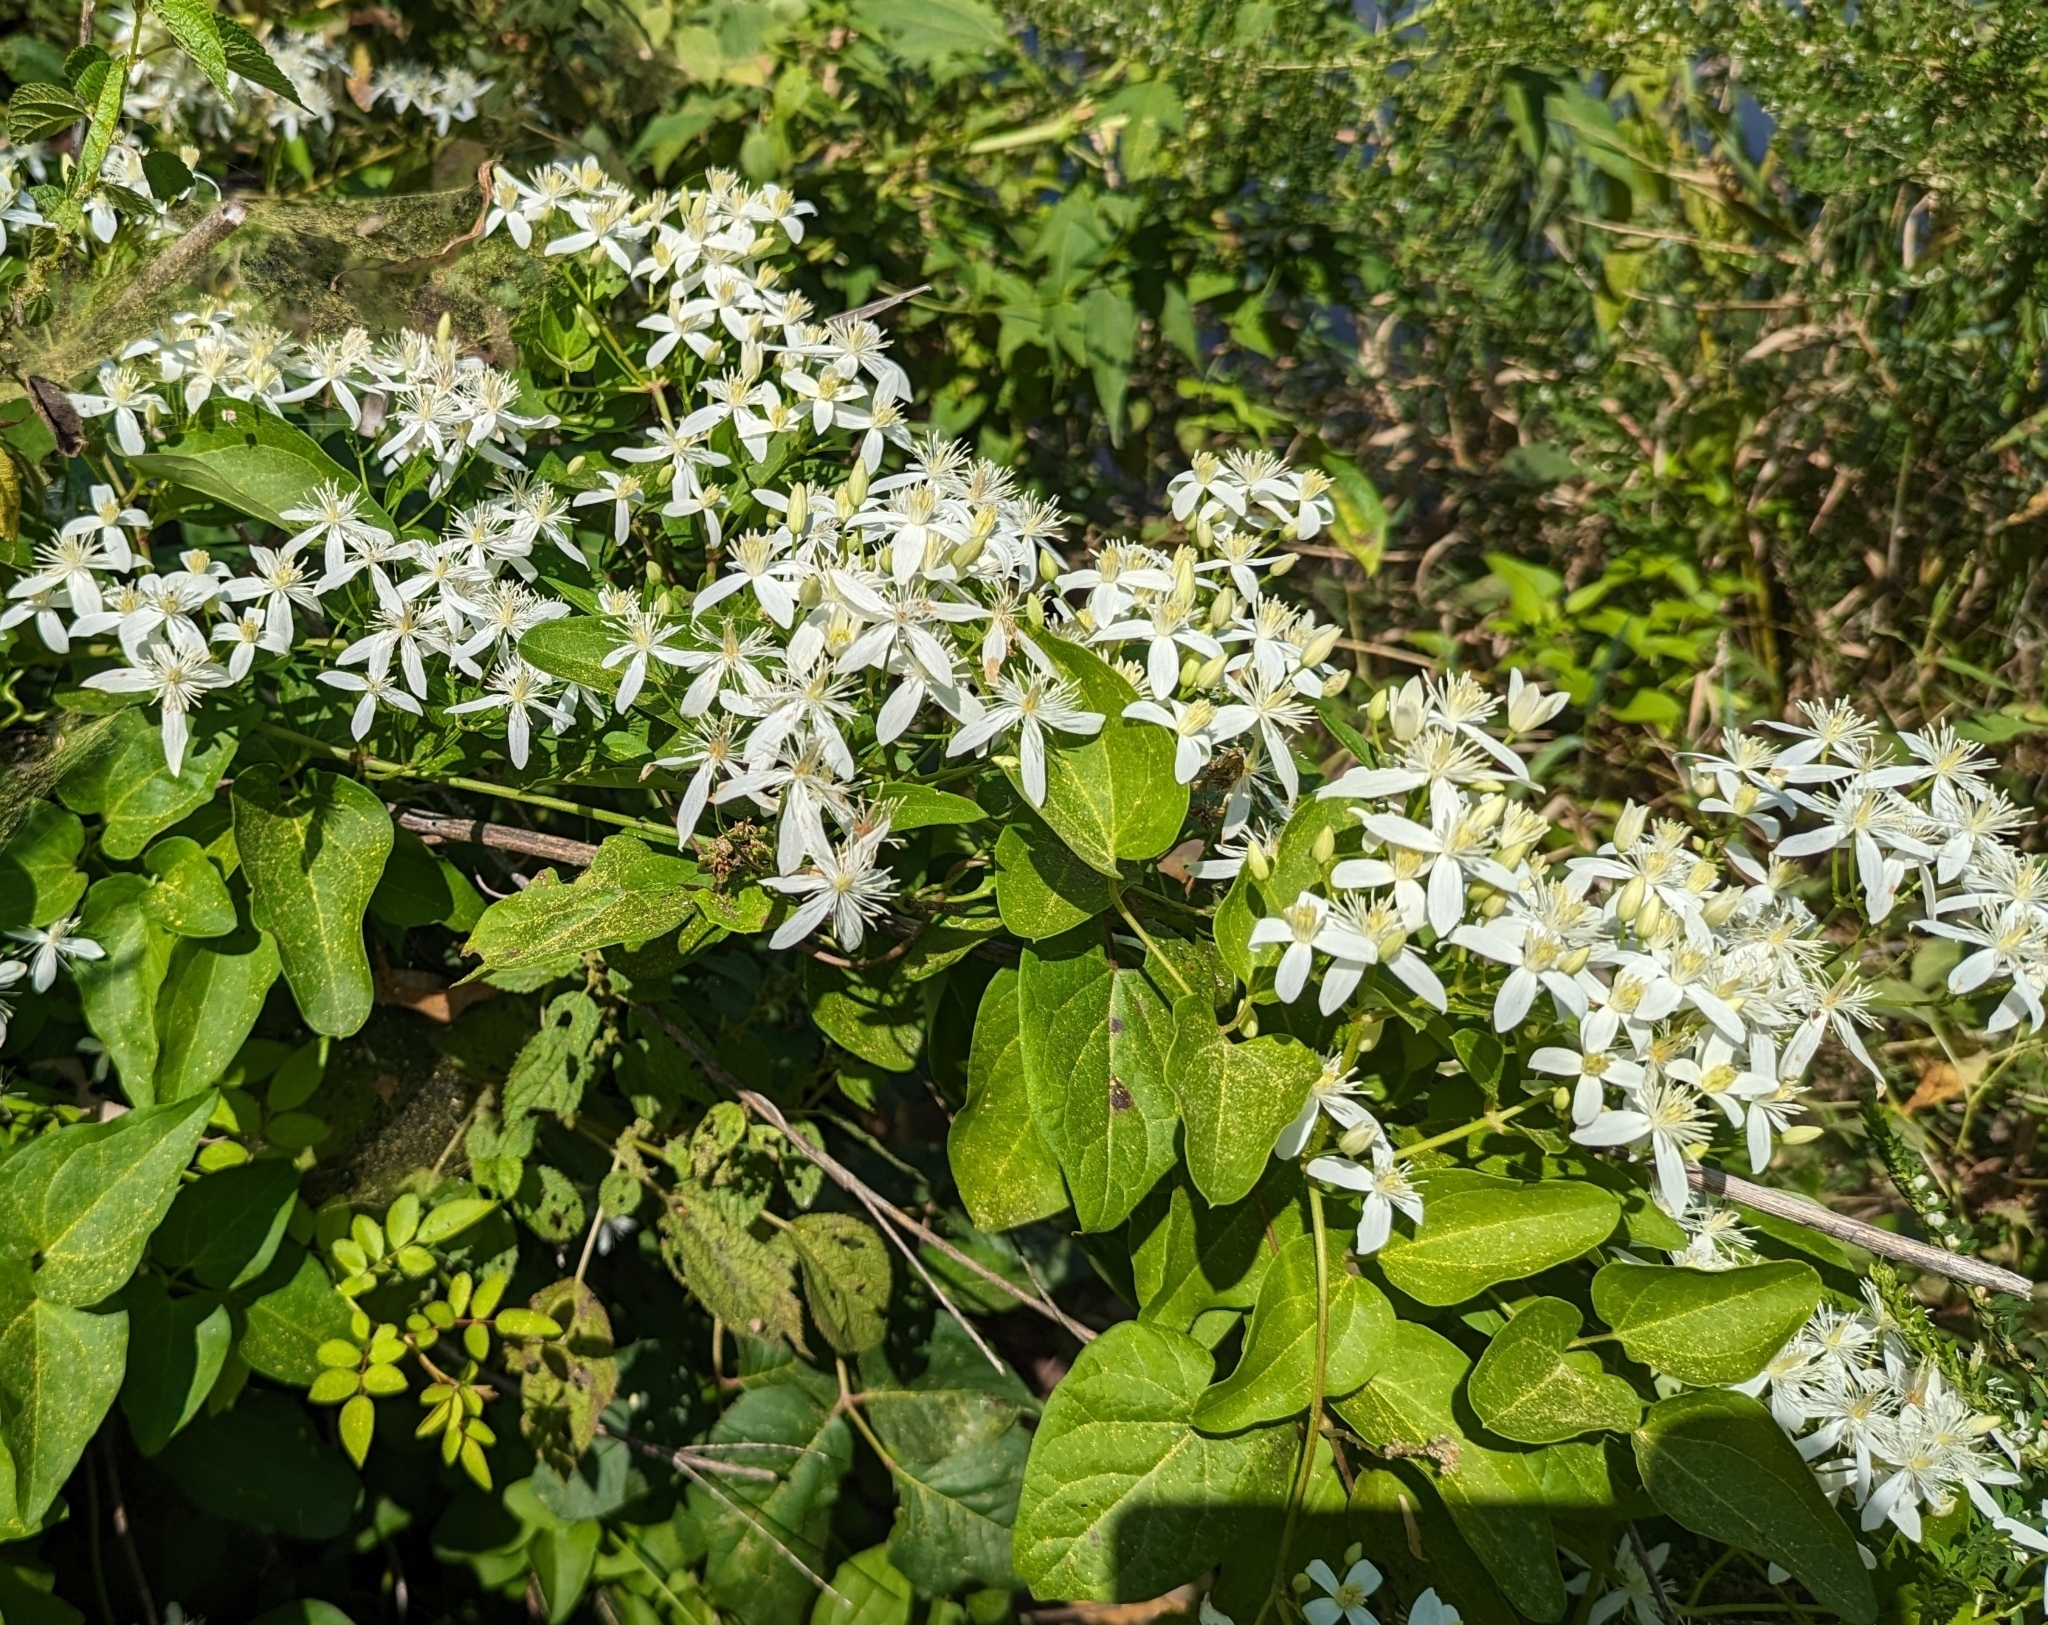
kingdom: Plantae
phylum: Tracheophyta
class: Magnoliopsida
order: Ranunculales
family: Ranunculaceae
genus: Clematis
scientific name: Clematis terniflora
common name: Sweet autumn clematis
